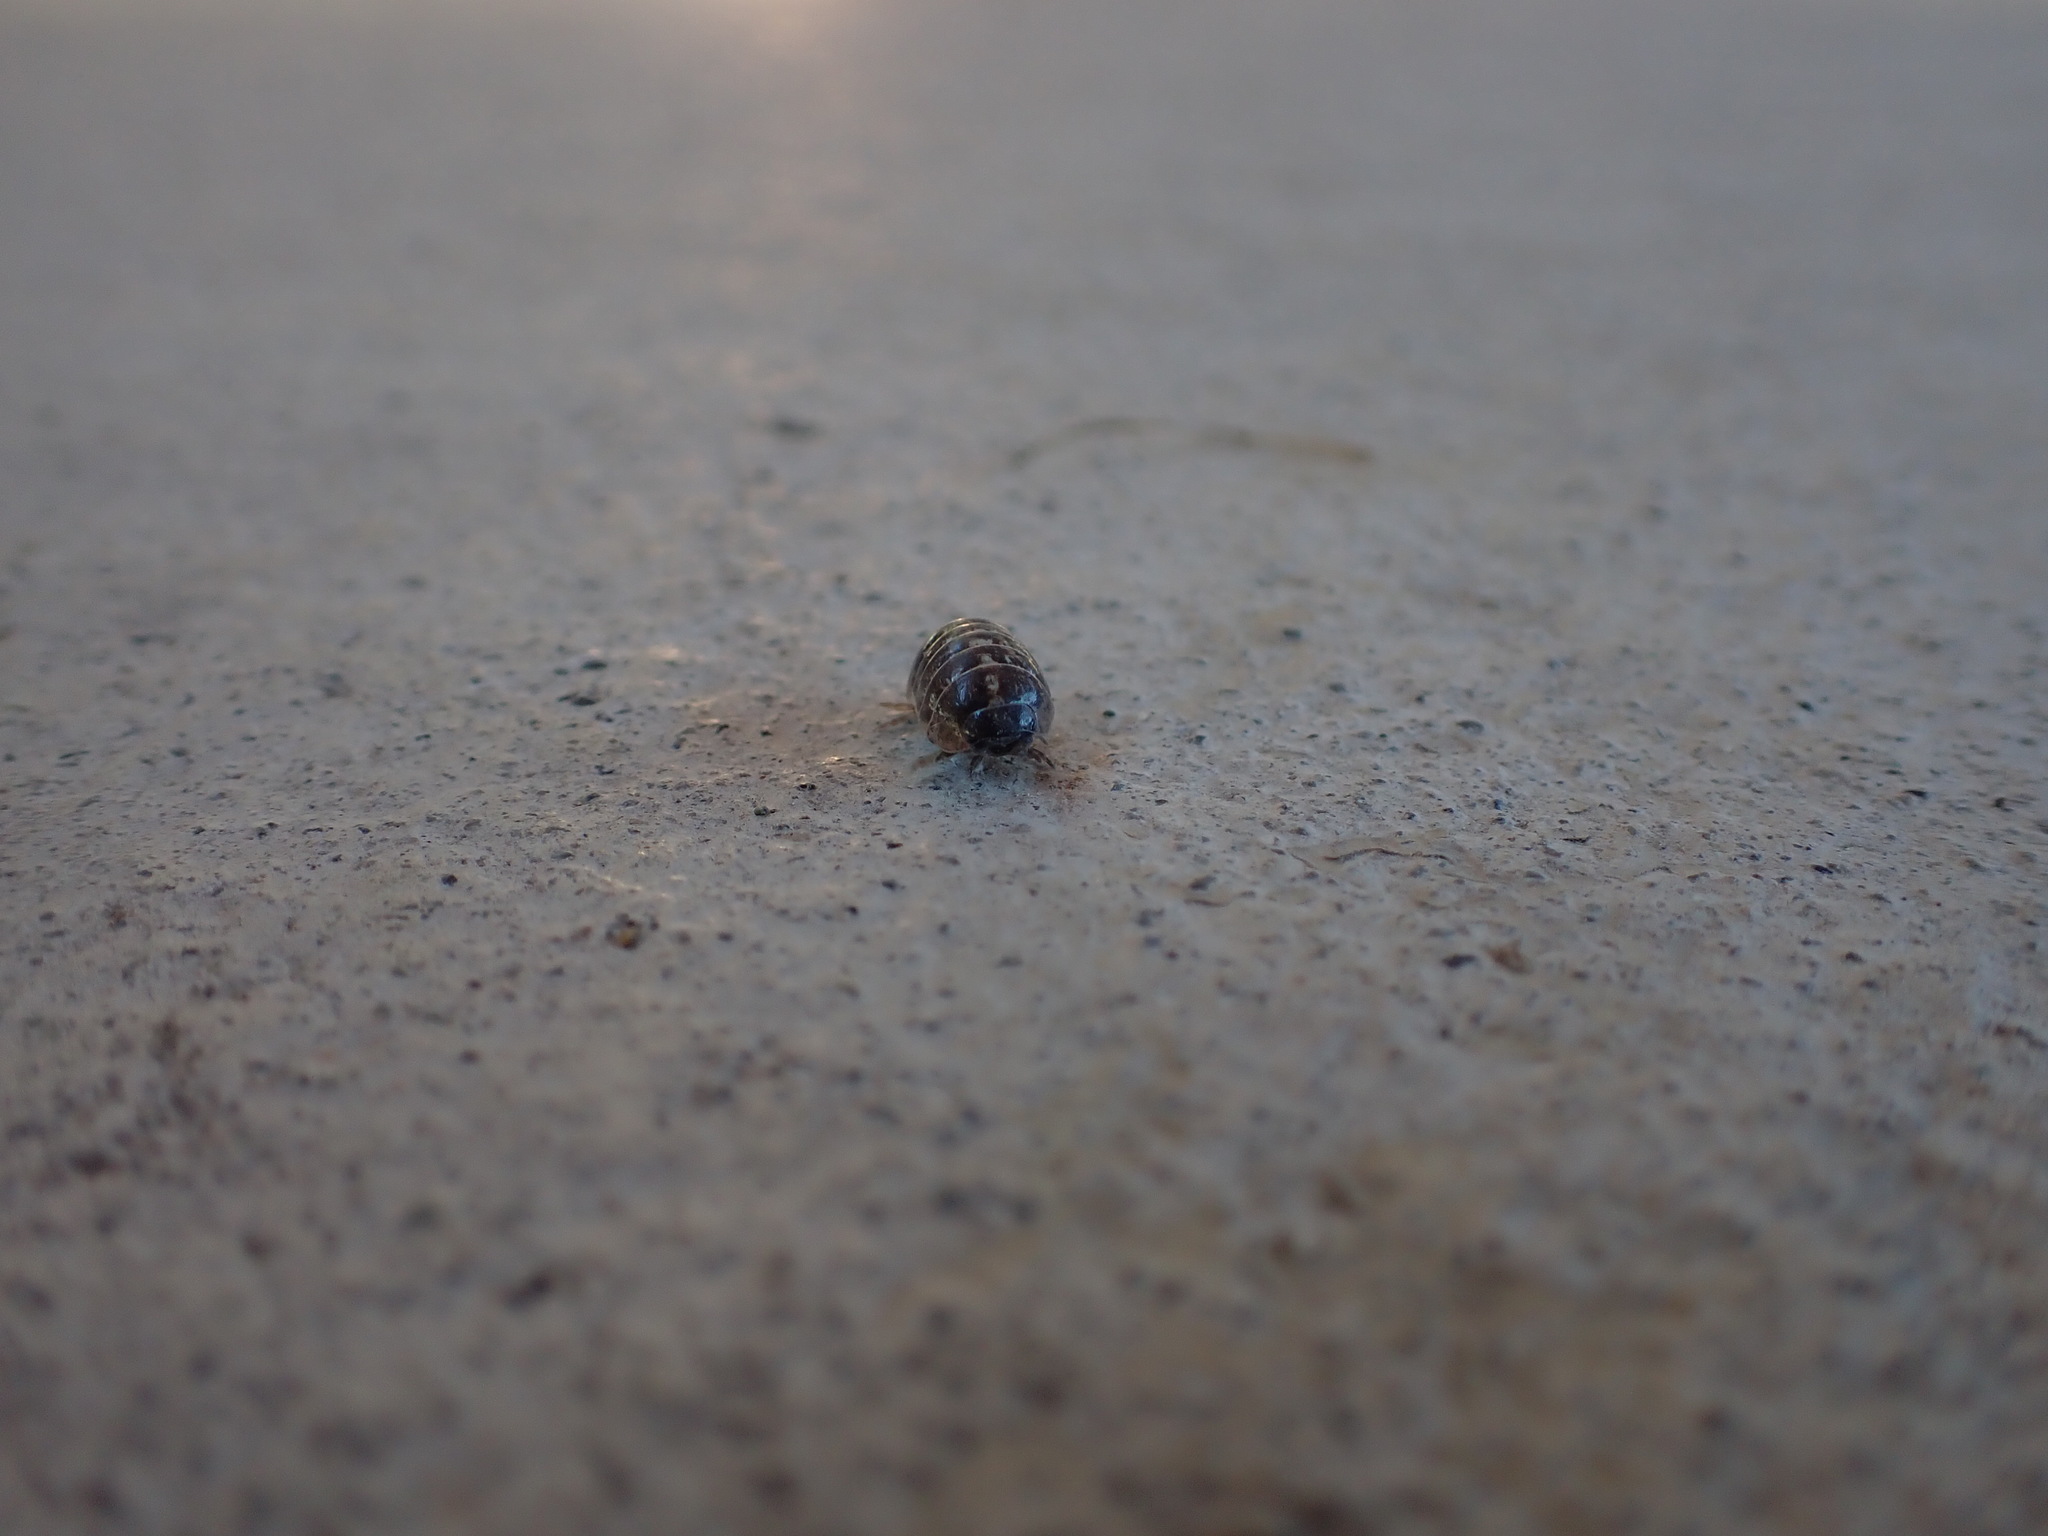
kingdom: Animalia
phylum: Arthropoda
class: Malacostraca
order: Isopoda
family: Armadillidiidae
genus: Armadillidium
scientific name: Armadillidium vulgare
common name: Common pill woodlouse
